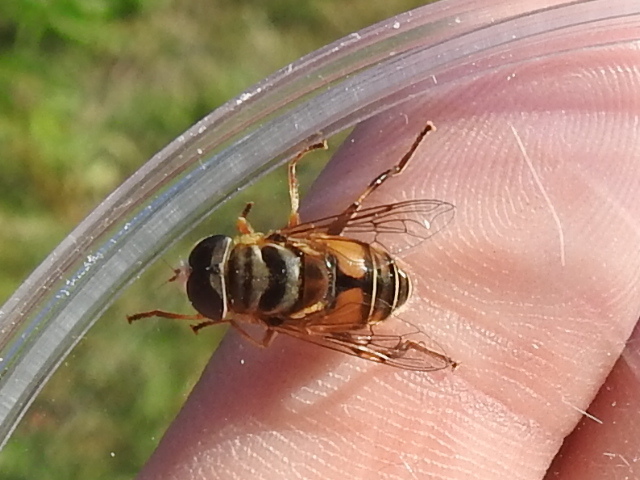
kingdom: Animalia
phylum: Arthropoda
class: Insecta
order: Diptera
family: Syrphidae
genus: Palpada
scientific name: Palpada vinetorum
